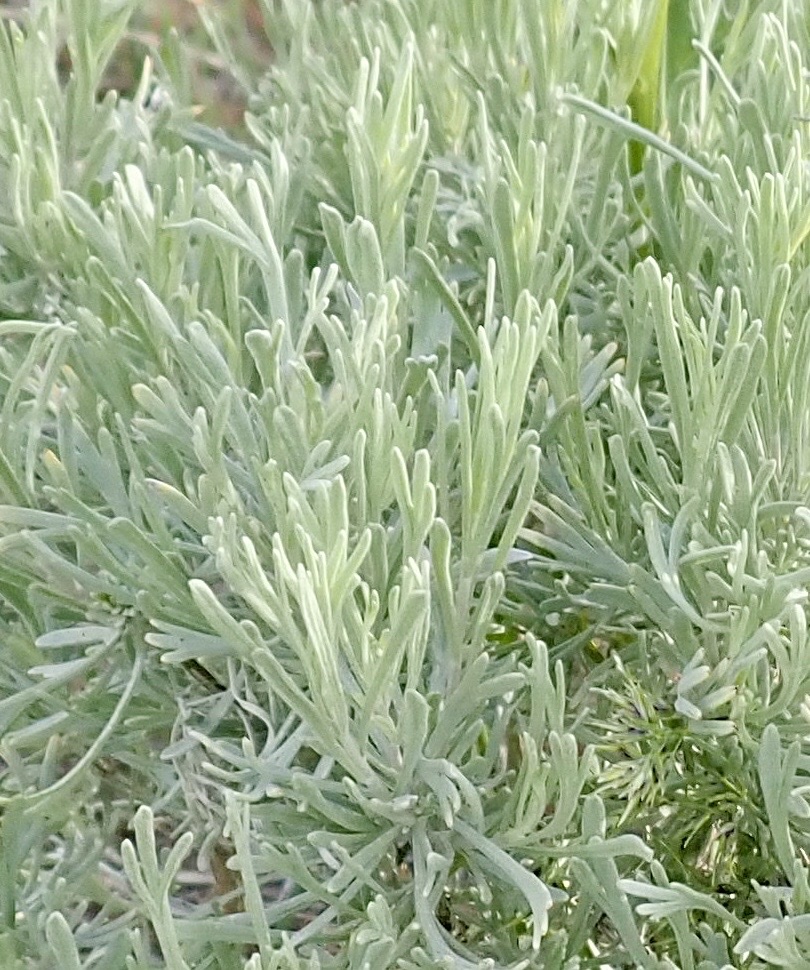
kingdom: Plantae
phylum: Tracheophyta
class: Magnoliopsida
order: Asterales
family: Asteraceae
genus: Artemisia
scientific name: Artemisia tripartita
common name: Three-tip sagebrush
